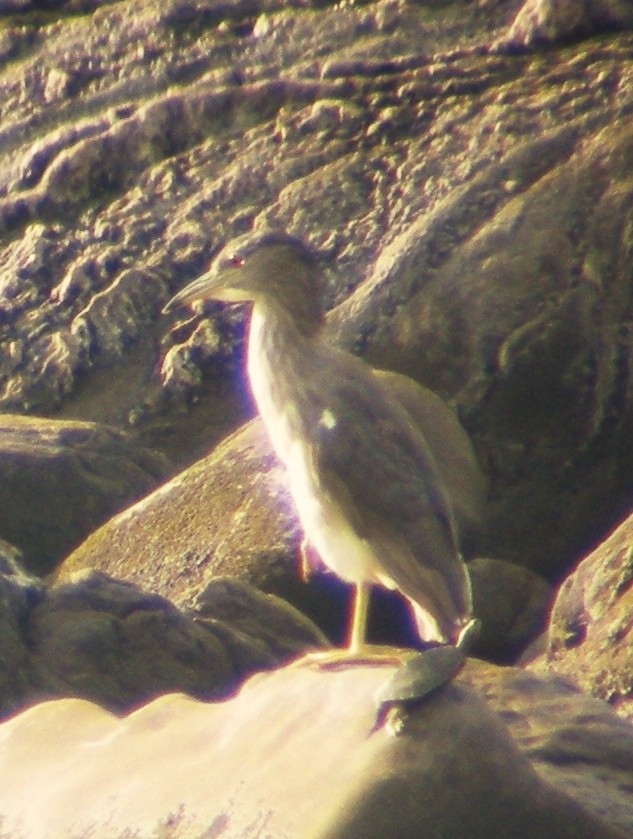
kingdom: Animalia
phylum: Chordata
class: Aves
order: Pelecaniformes
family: Ardeidae
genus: Nycticorax
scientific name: Nycticorax nycticorax
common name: Black-crowned night heron
